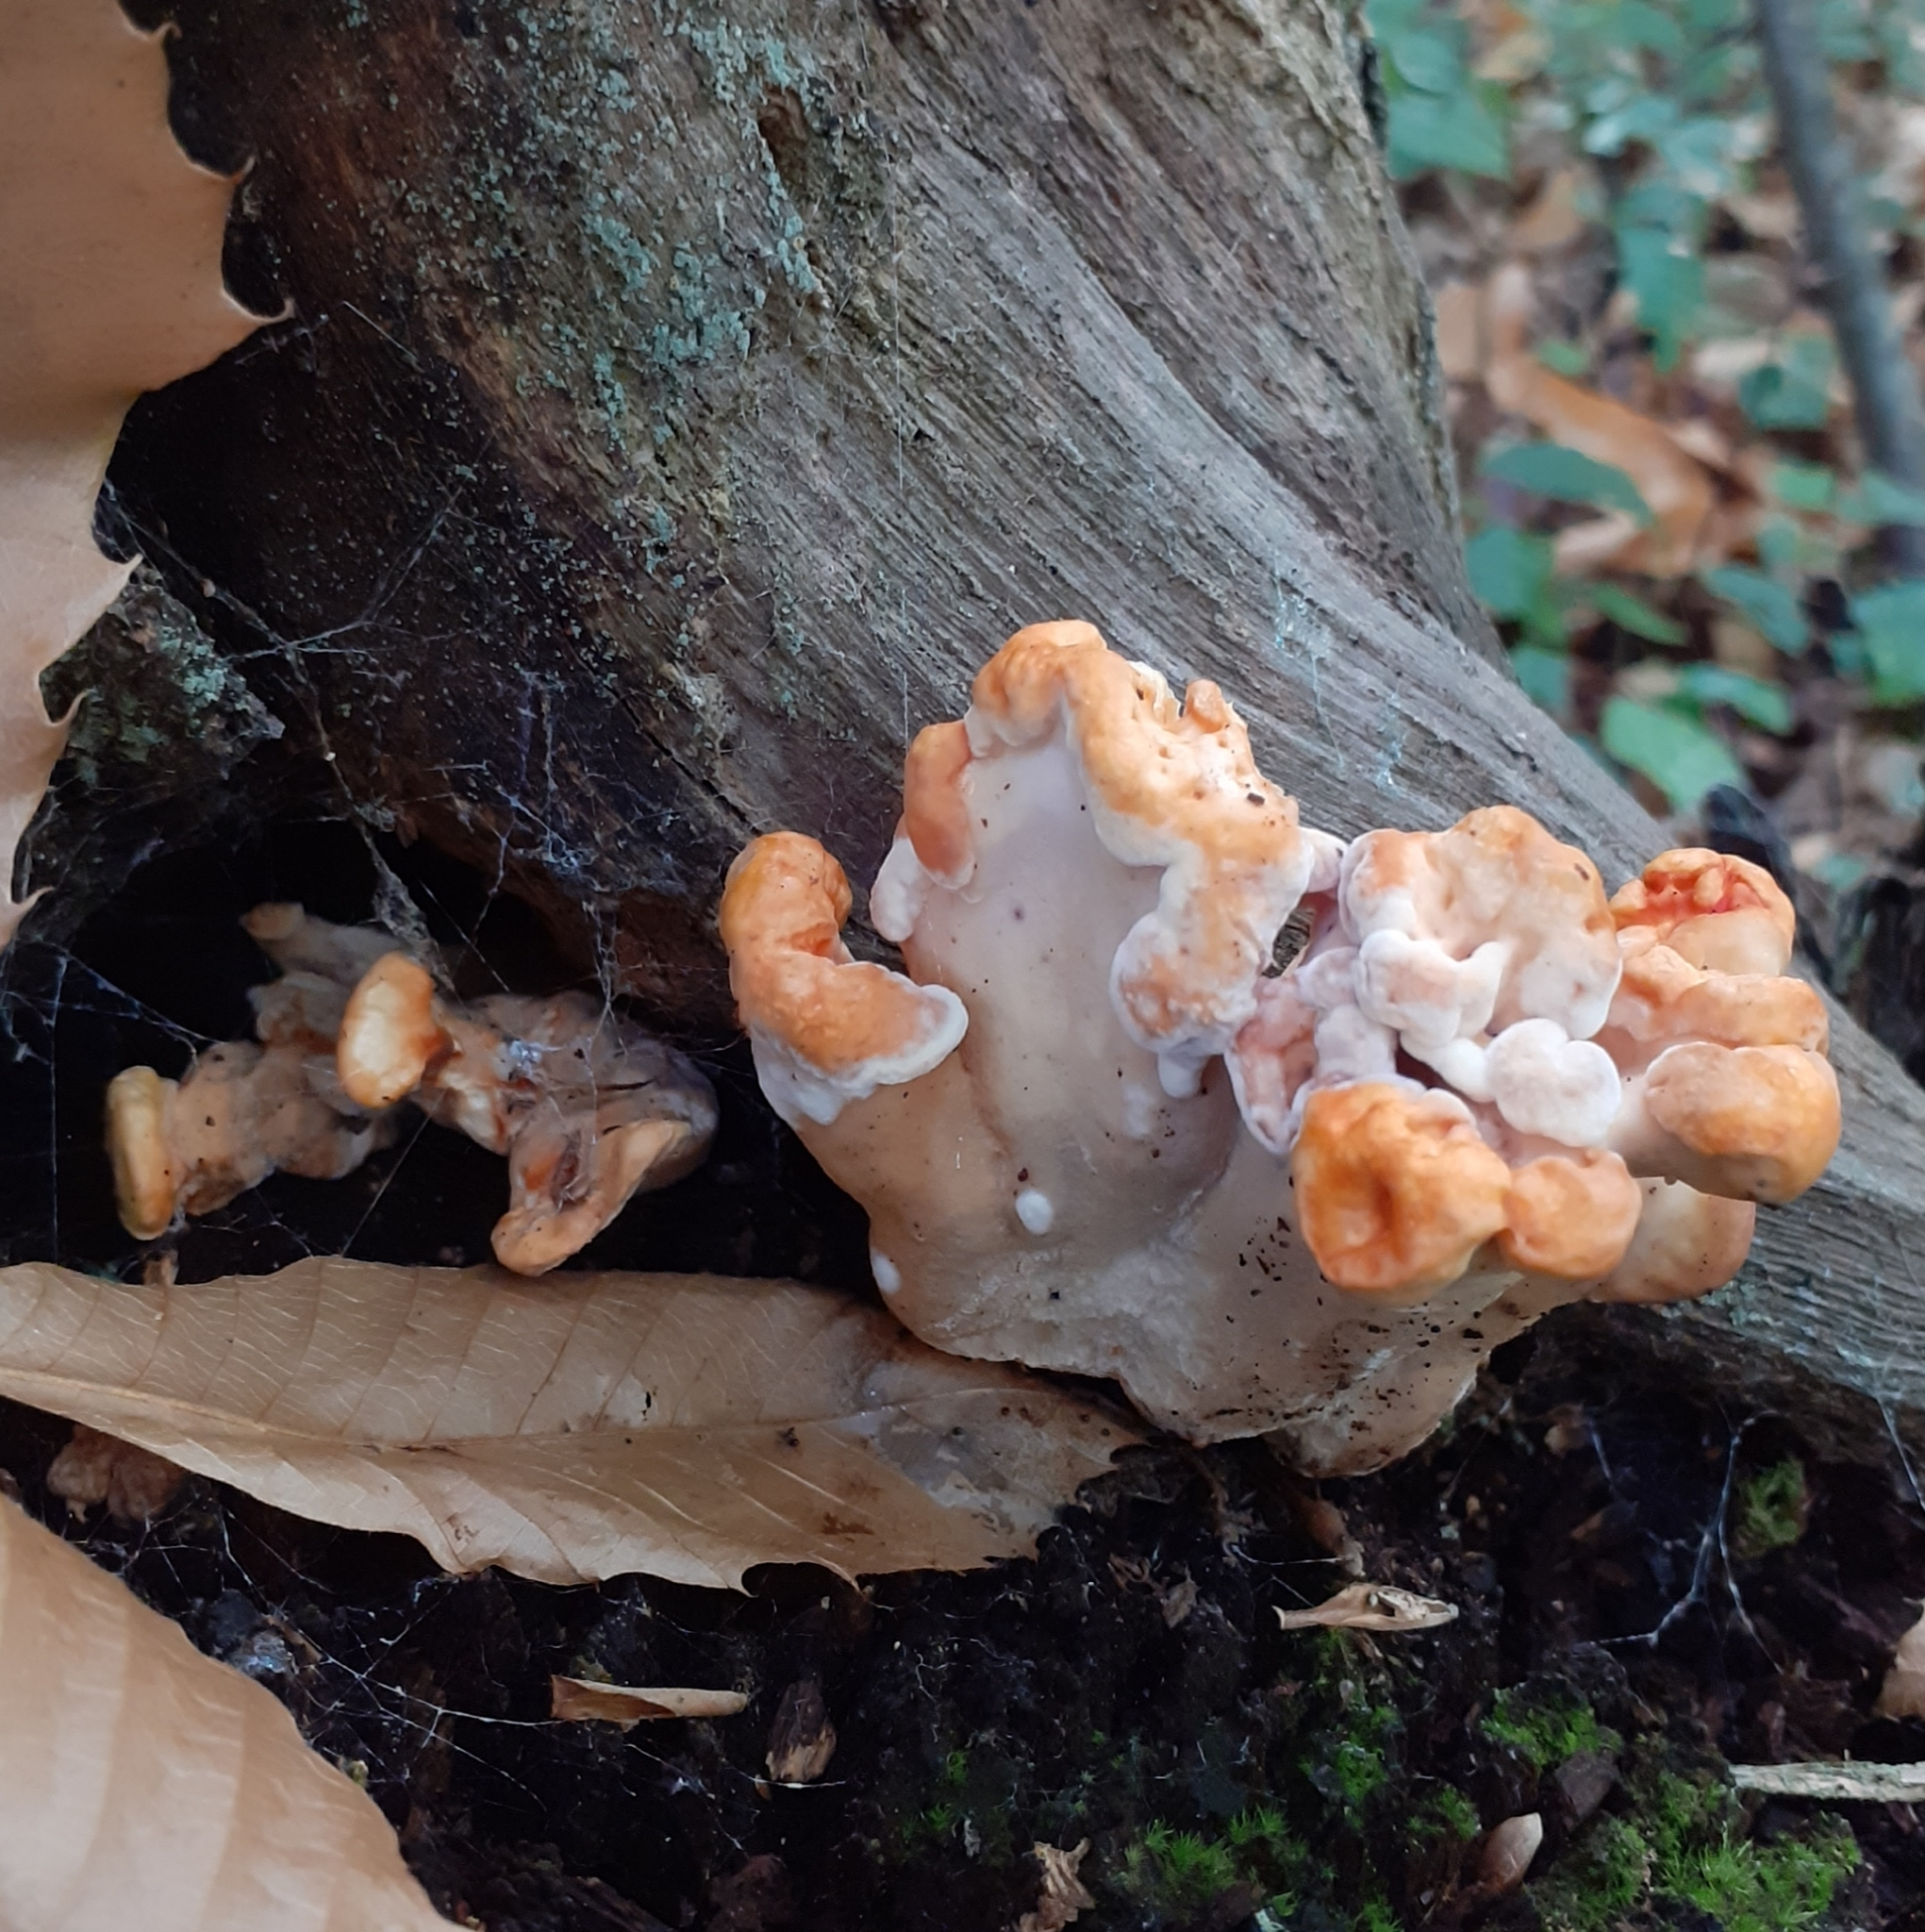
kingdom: Fungi
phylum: Basidiomycota
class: Agaricomycetes
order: Polyporales
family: Laetiporaceae
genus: Laetiporus
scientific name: Laetiporus sulphureus
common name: Chicken of the woods
